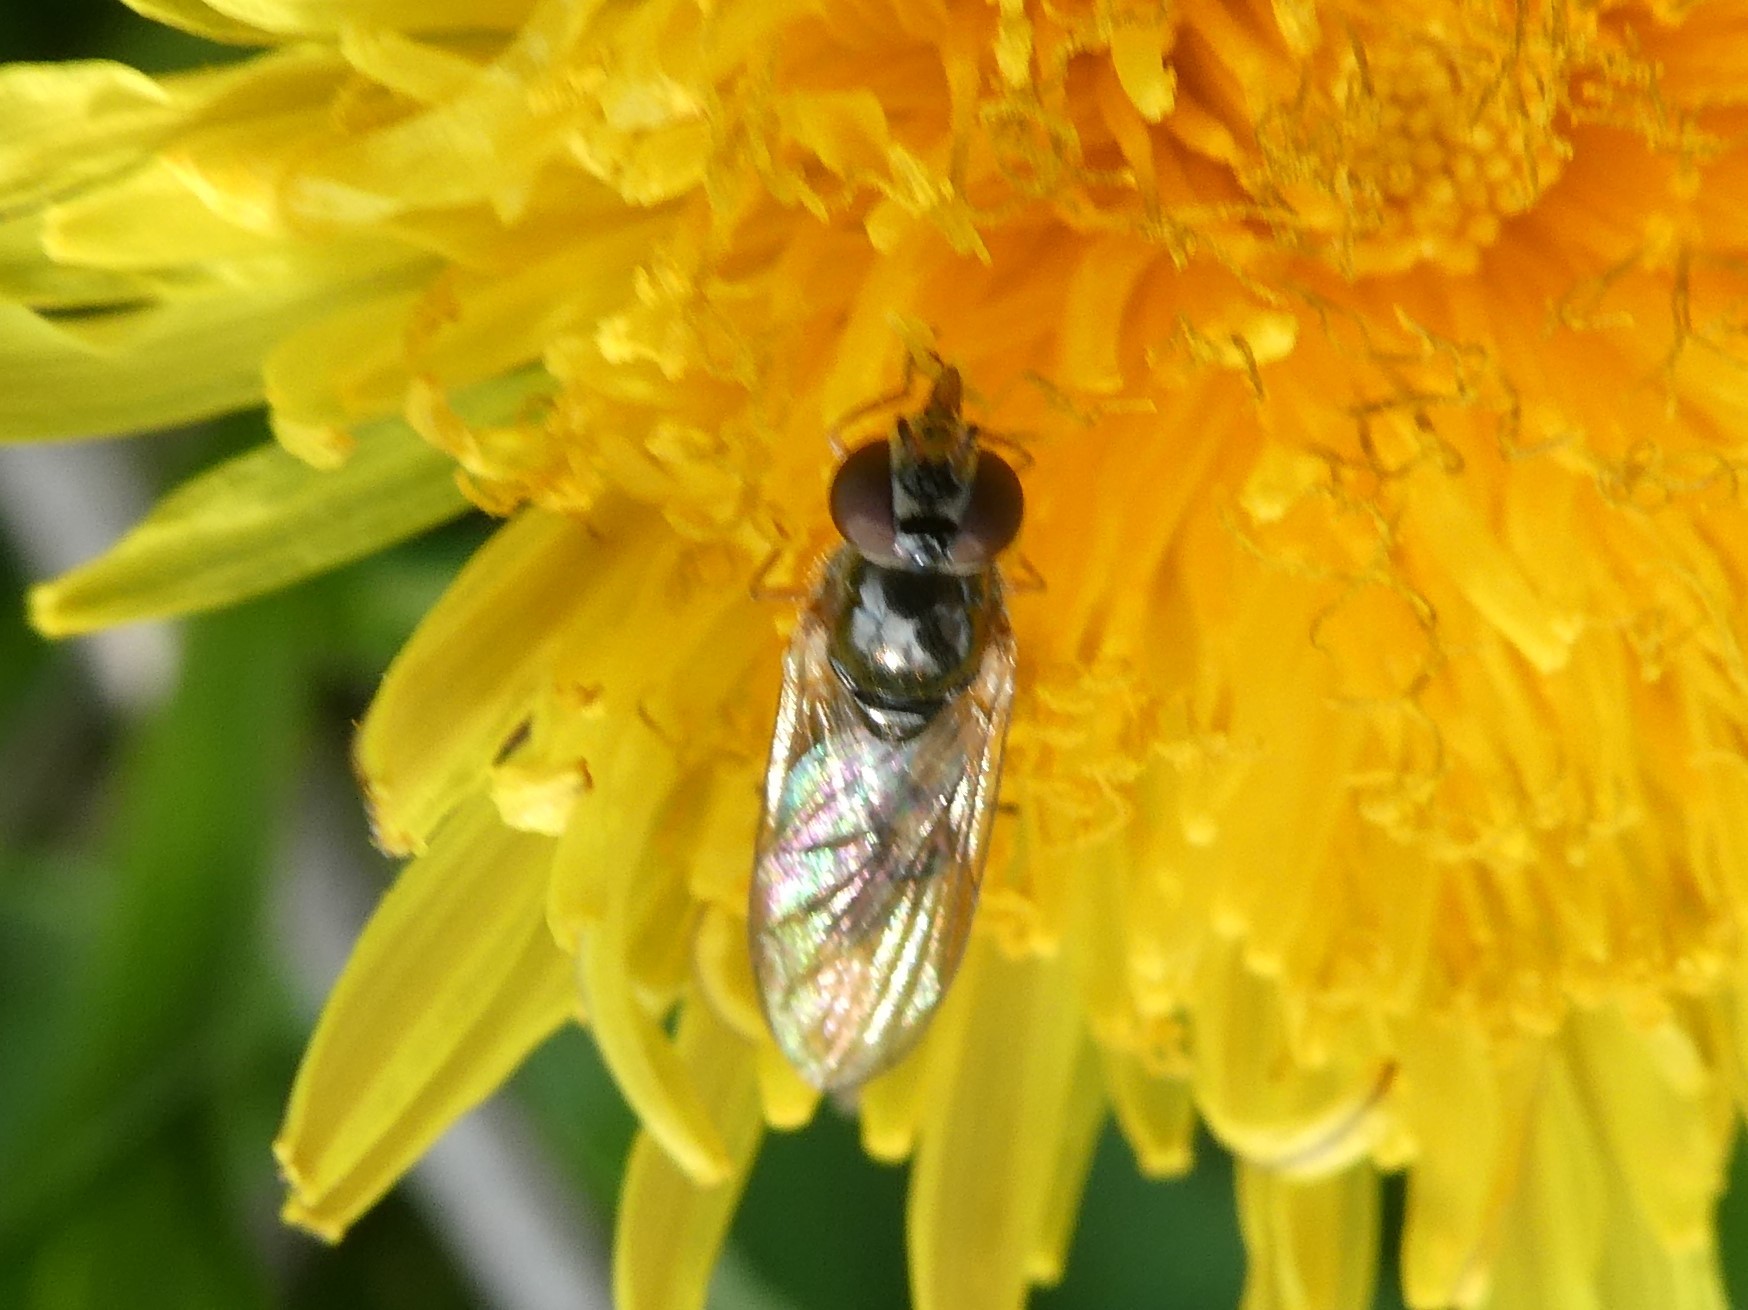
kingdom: Animalia
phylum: Arthropoda
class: Insecta
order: Diptera
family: Syrphidae
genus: Melanostoma
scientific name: Melanostoma mellina
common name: Hover fly
